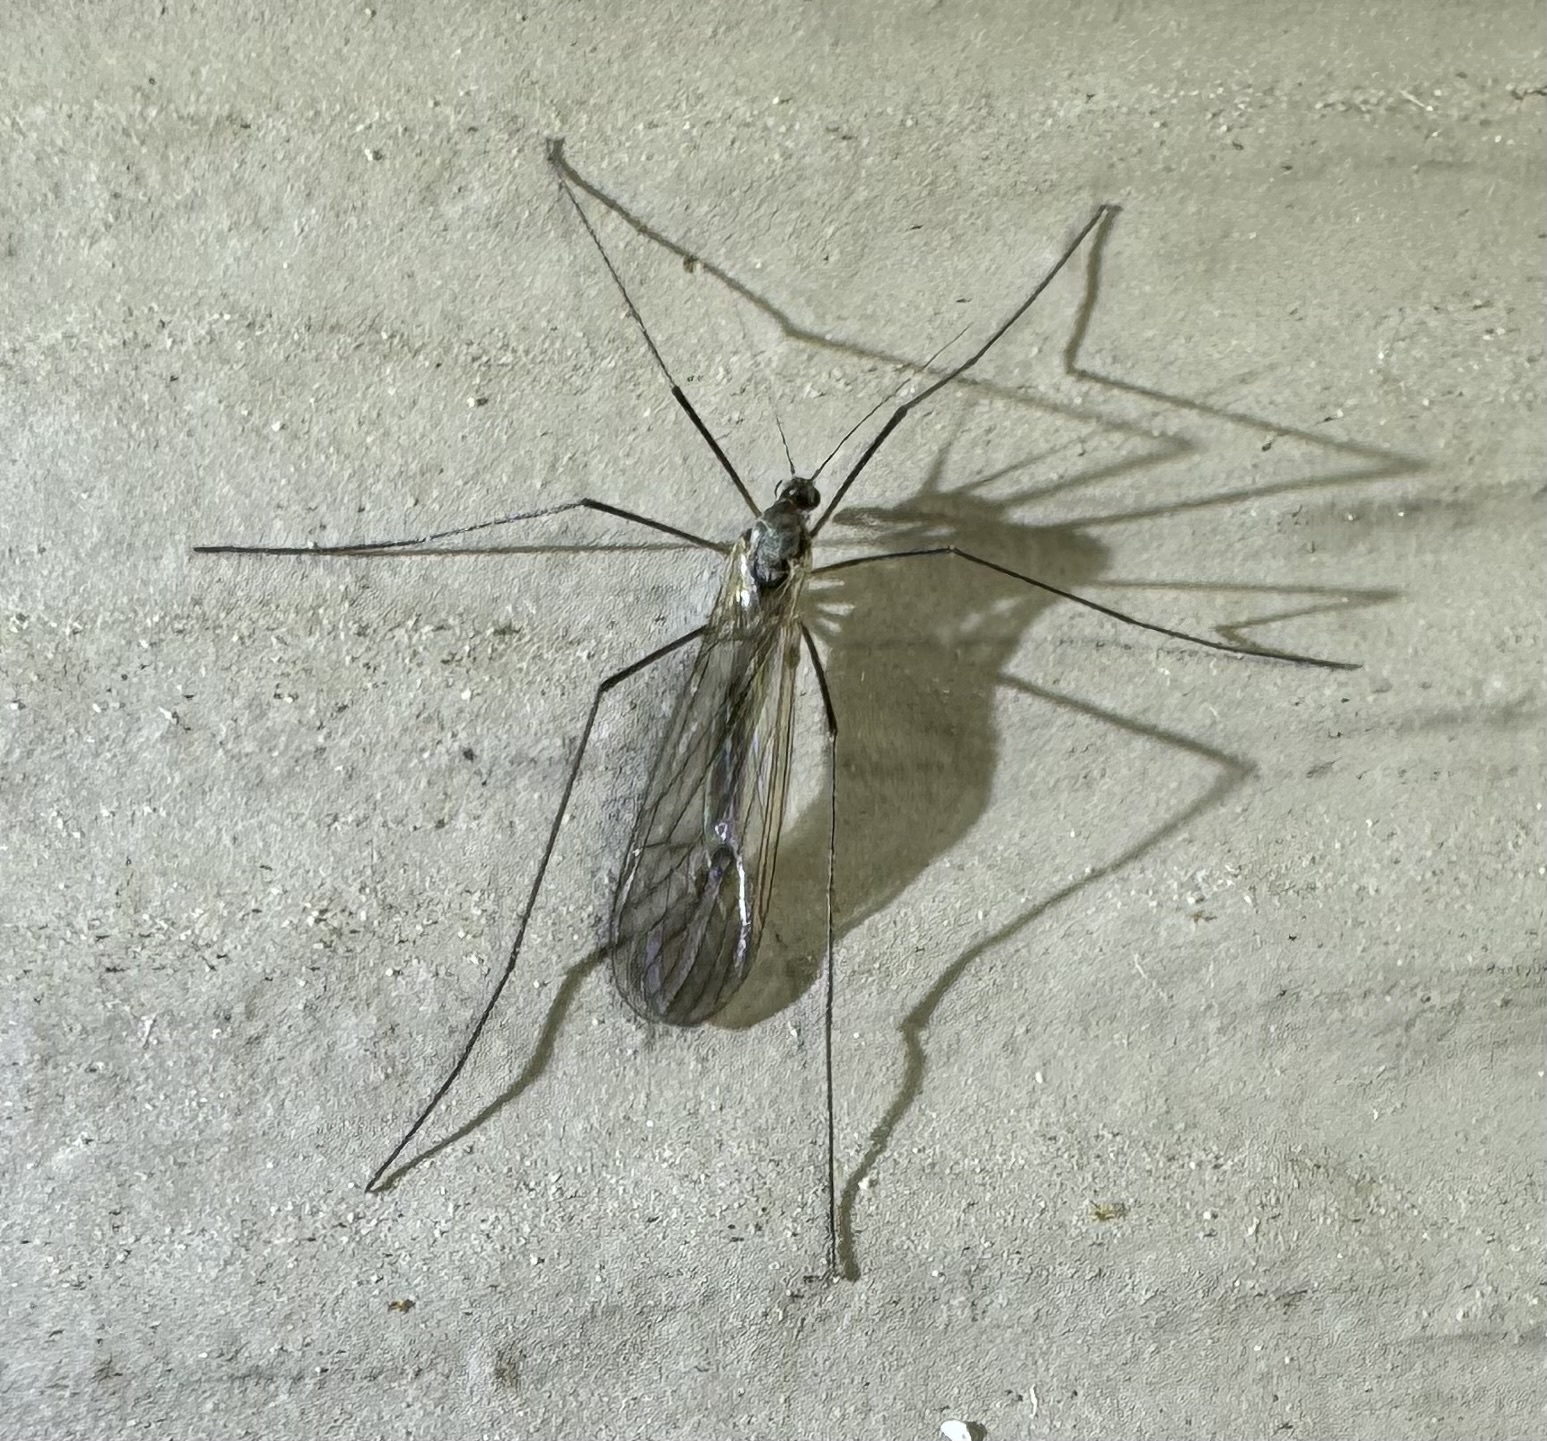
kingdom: Animalia
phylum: Arthropoda
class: Insecta
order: Diptera
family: Trichoceridae
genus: Trichocera
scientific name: Trichocera garretti
